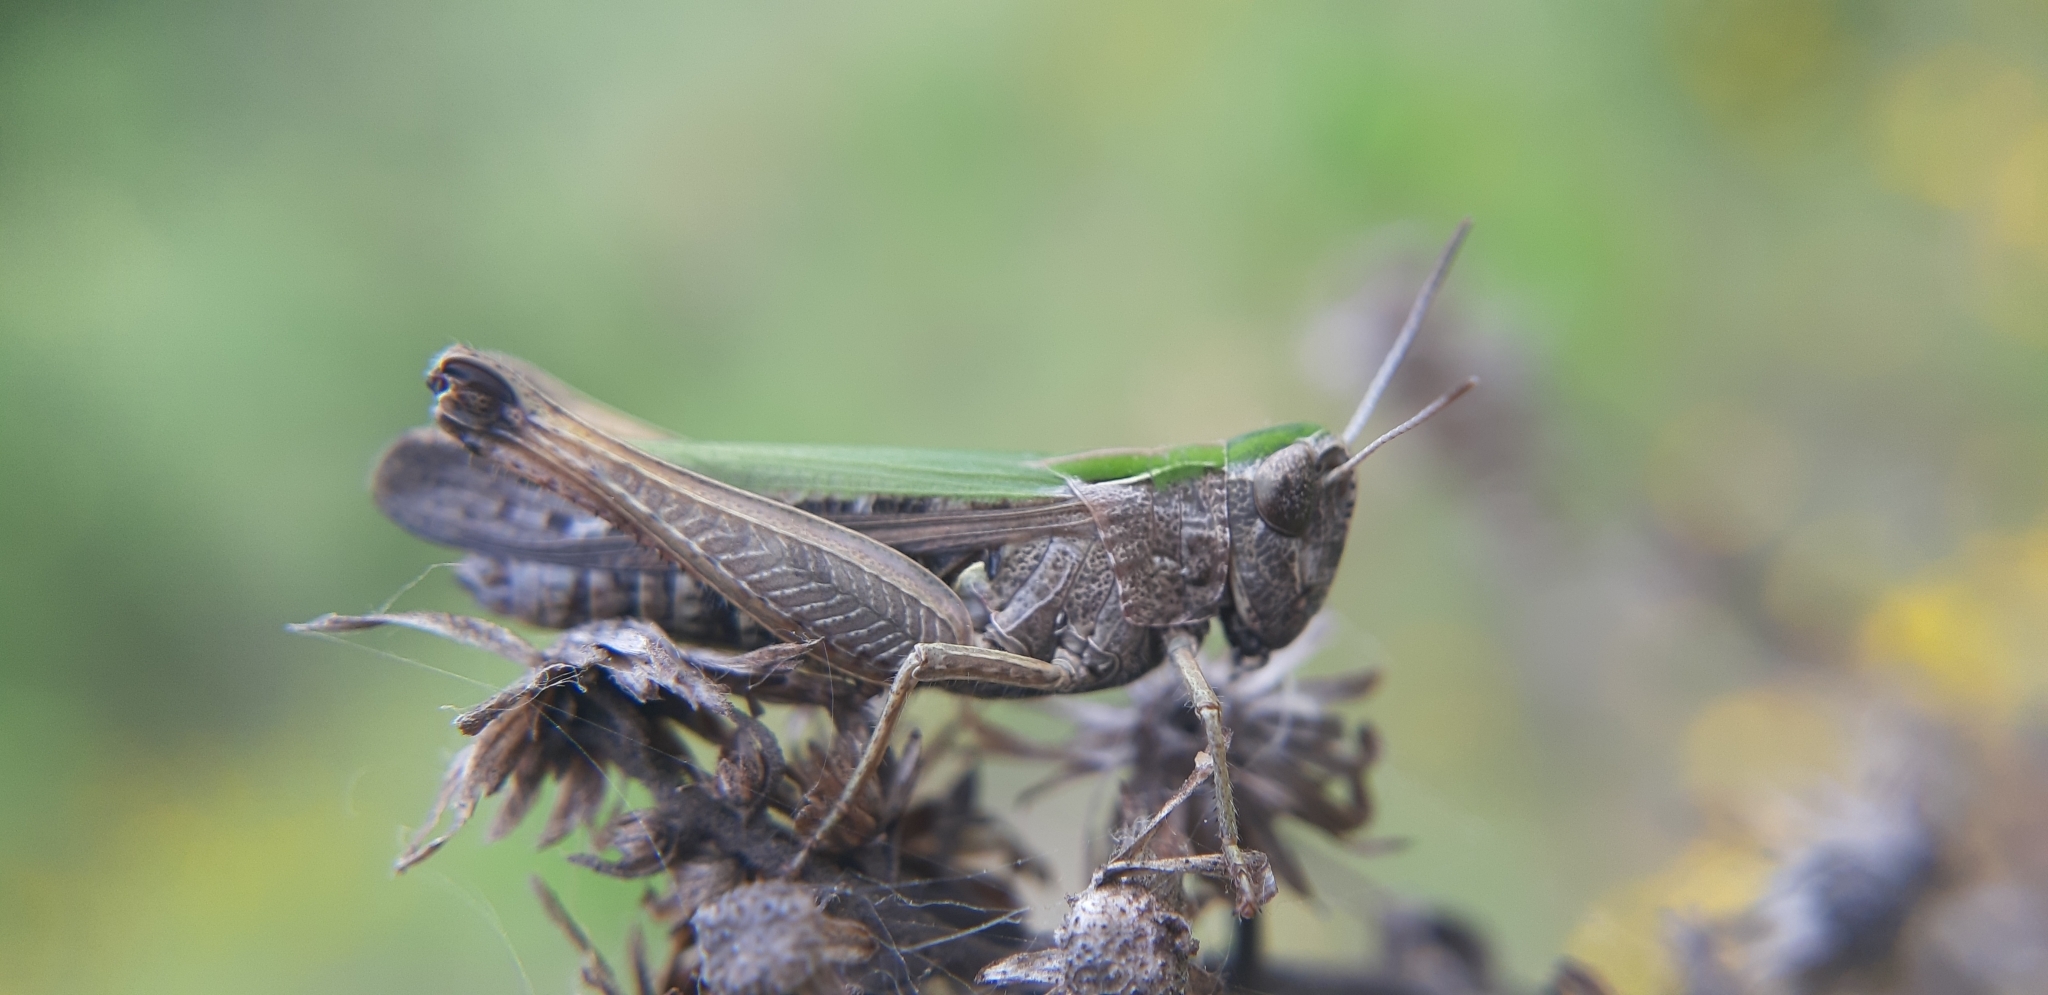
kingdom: Animalia
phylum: Arthropoda
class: Insecta
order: Orthoptera
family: Acrididae
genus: Omocestus
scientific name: Omocestus rufipes
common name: Woodland grasshopper
